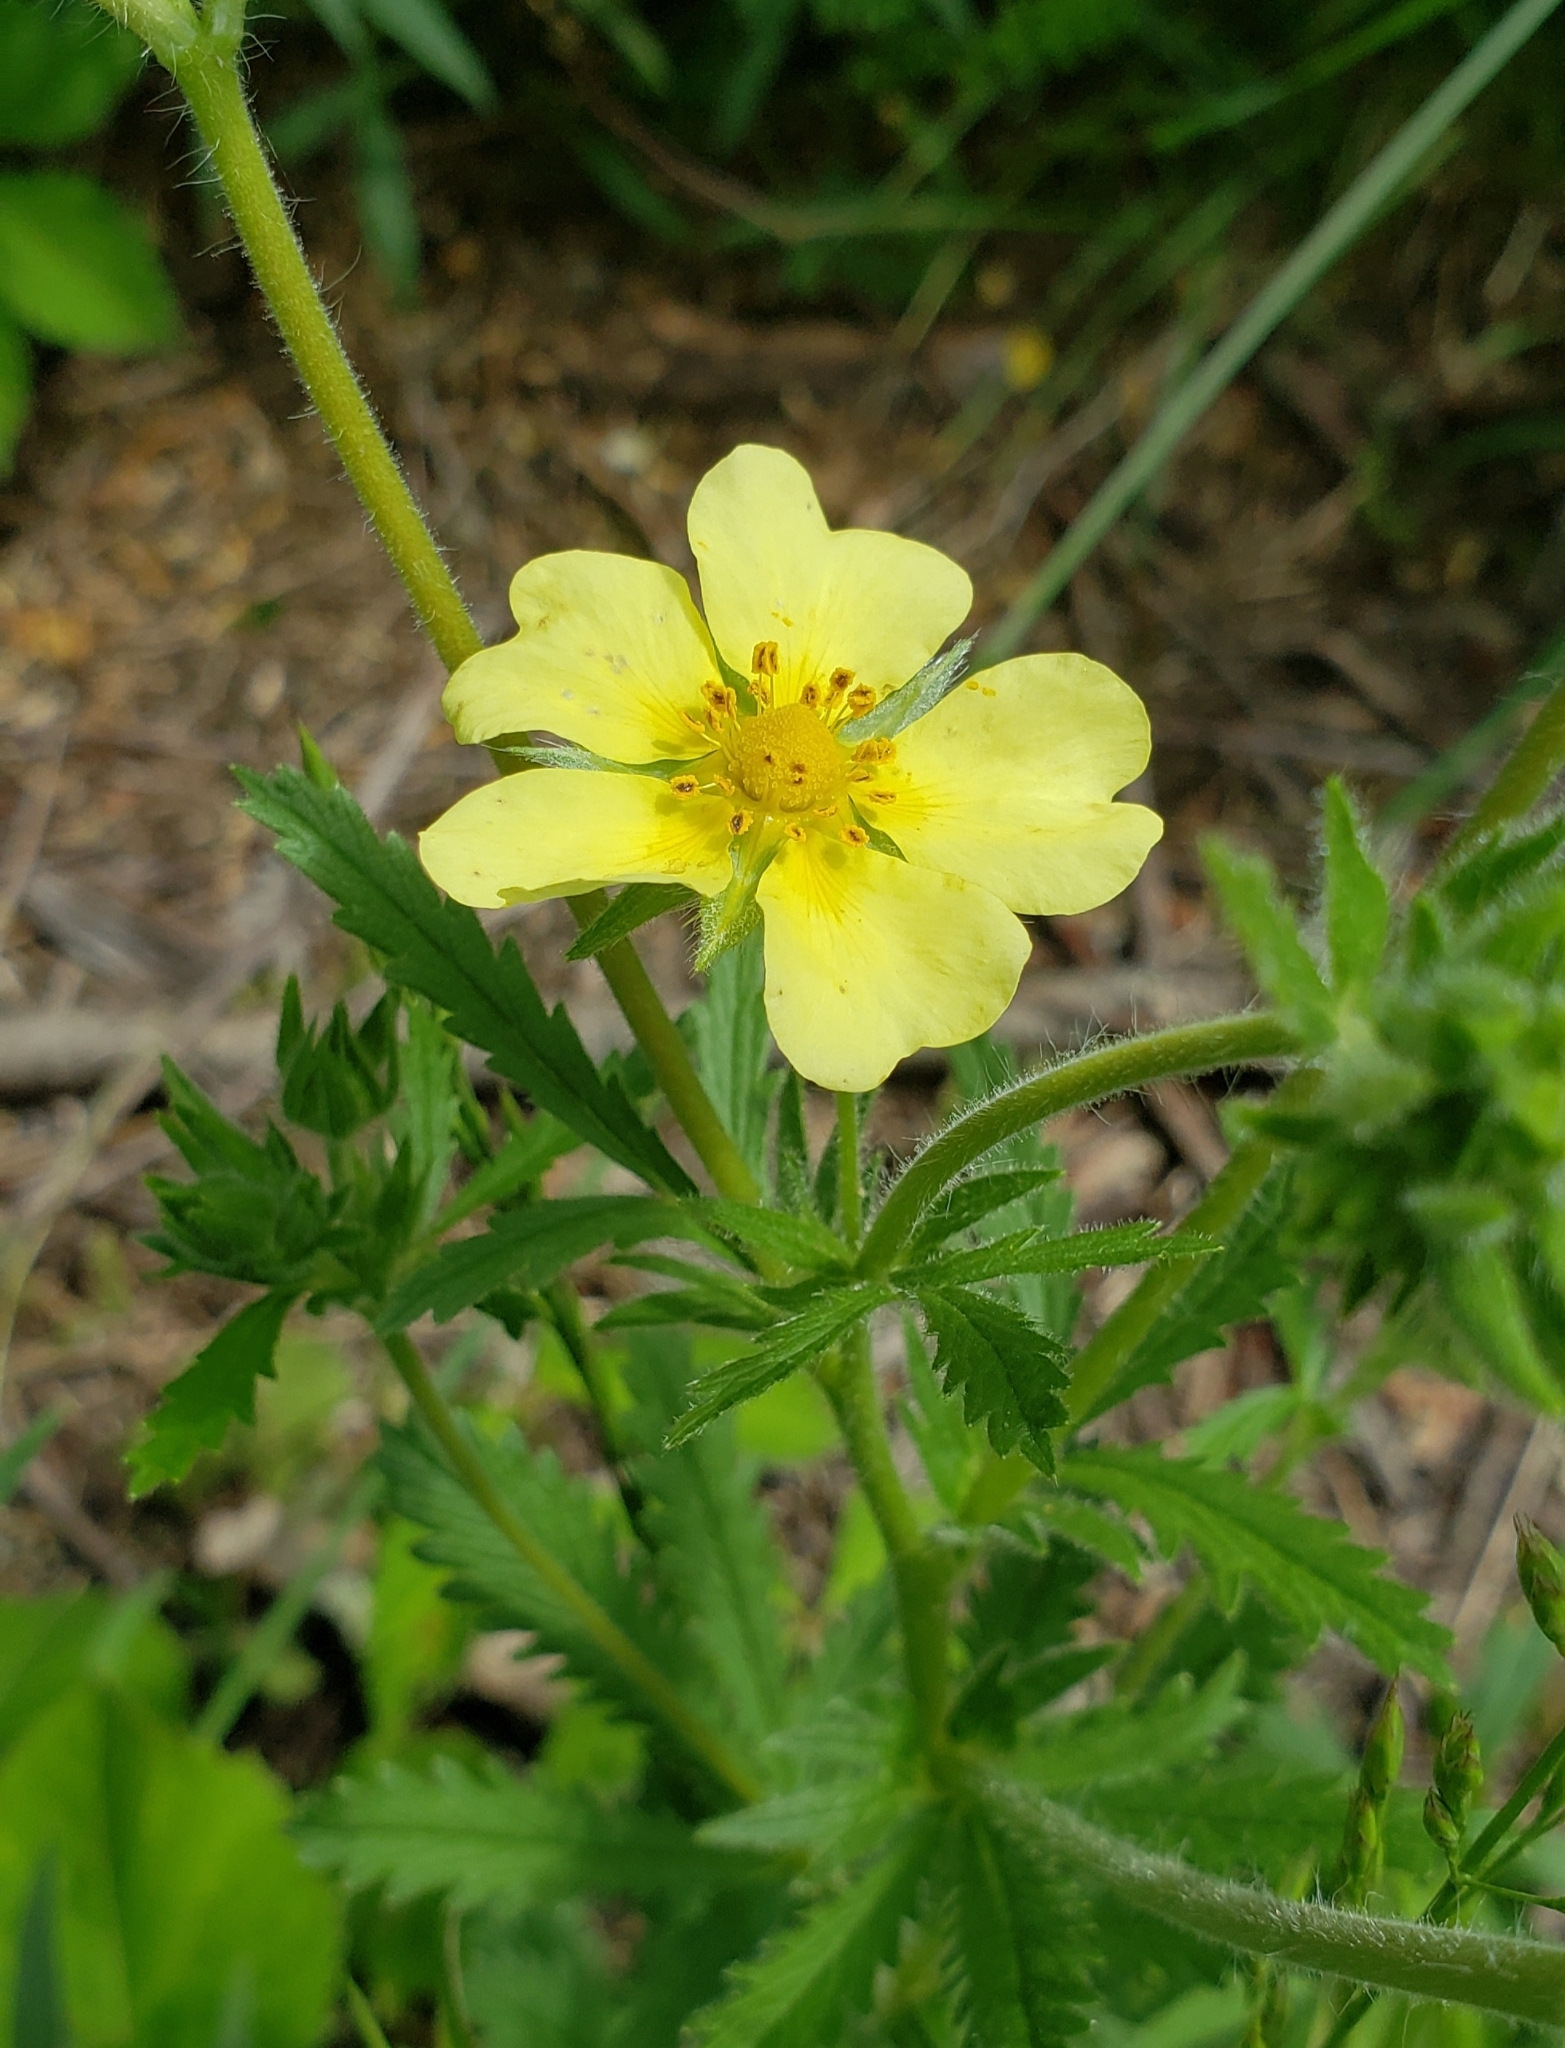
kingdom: Plantae
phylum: Tracheophyta
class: Magnoliopsida
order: Rosales
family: Rosaceae
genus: Potentilla
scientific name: Potentilla recta
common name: Sulphur cinquefoil
